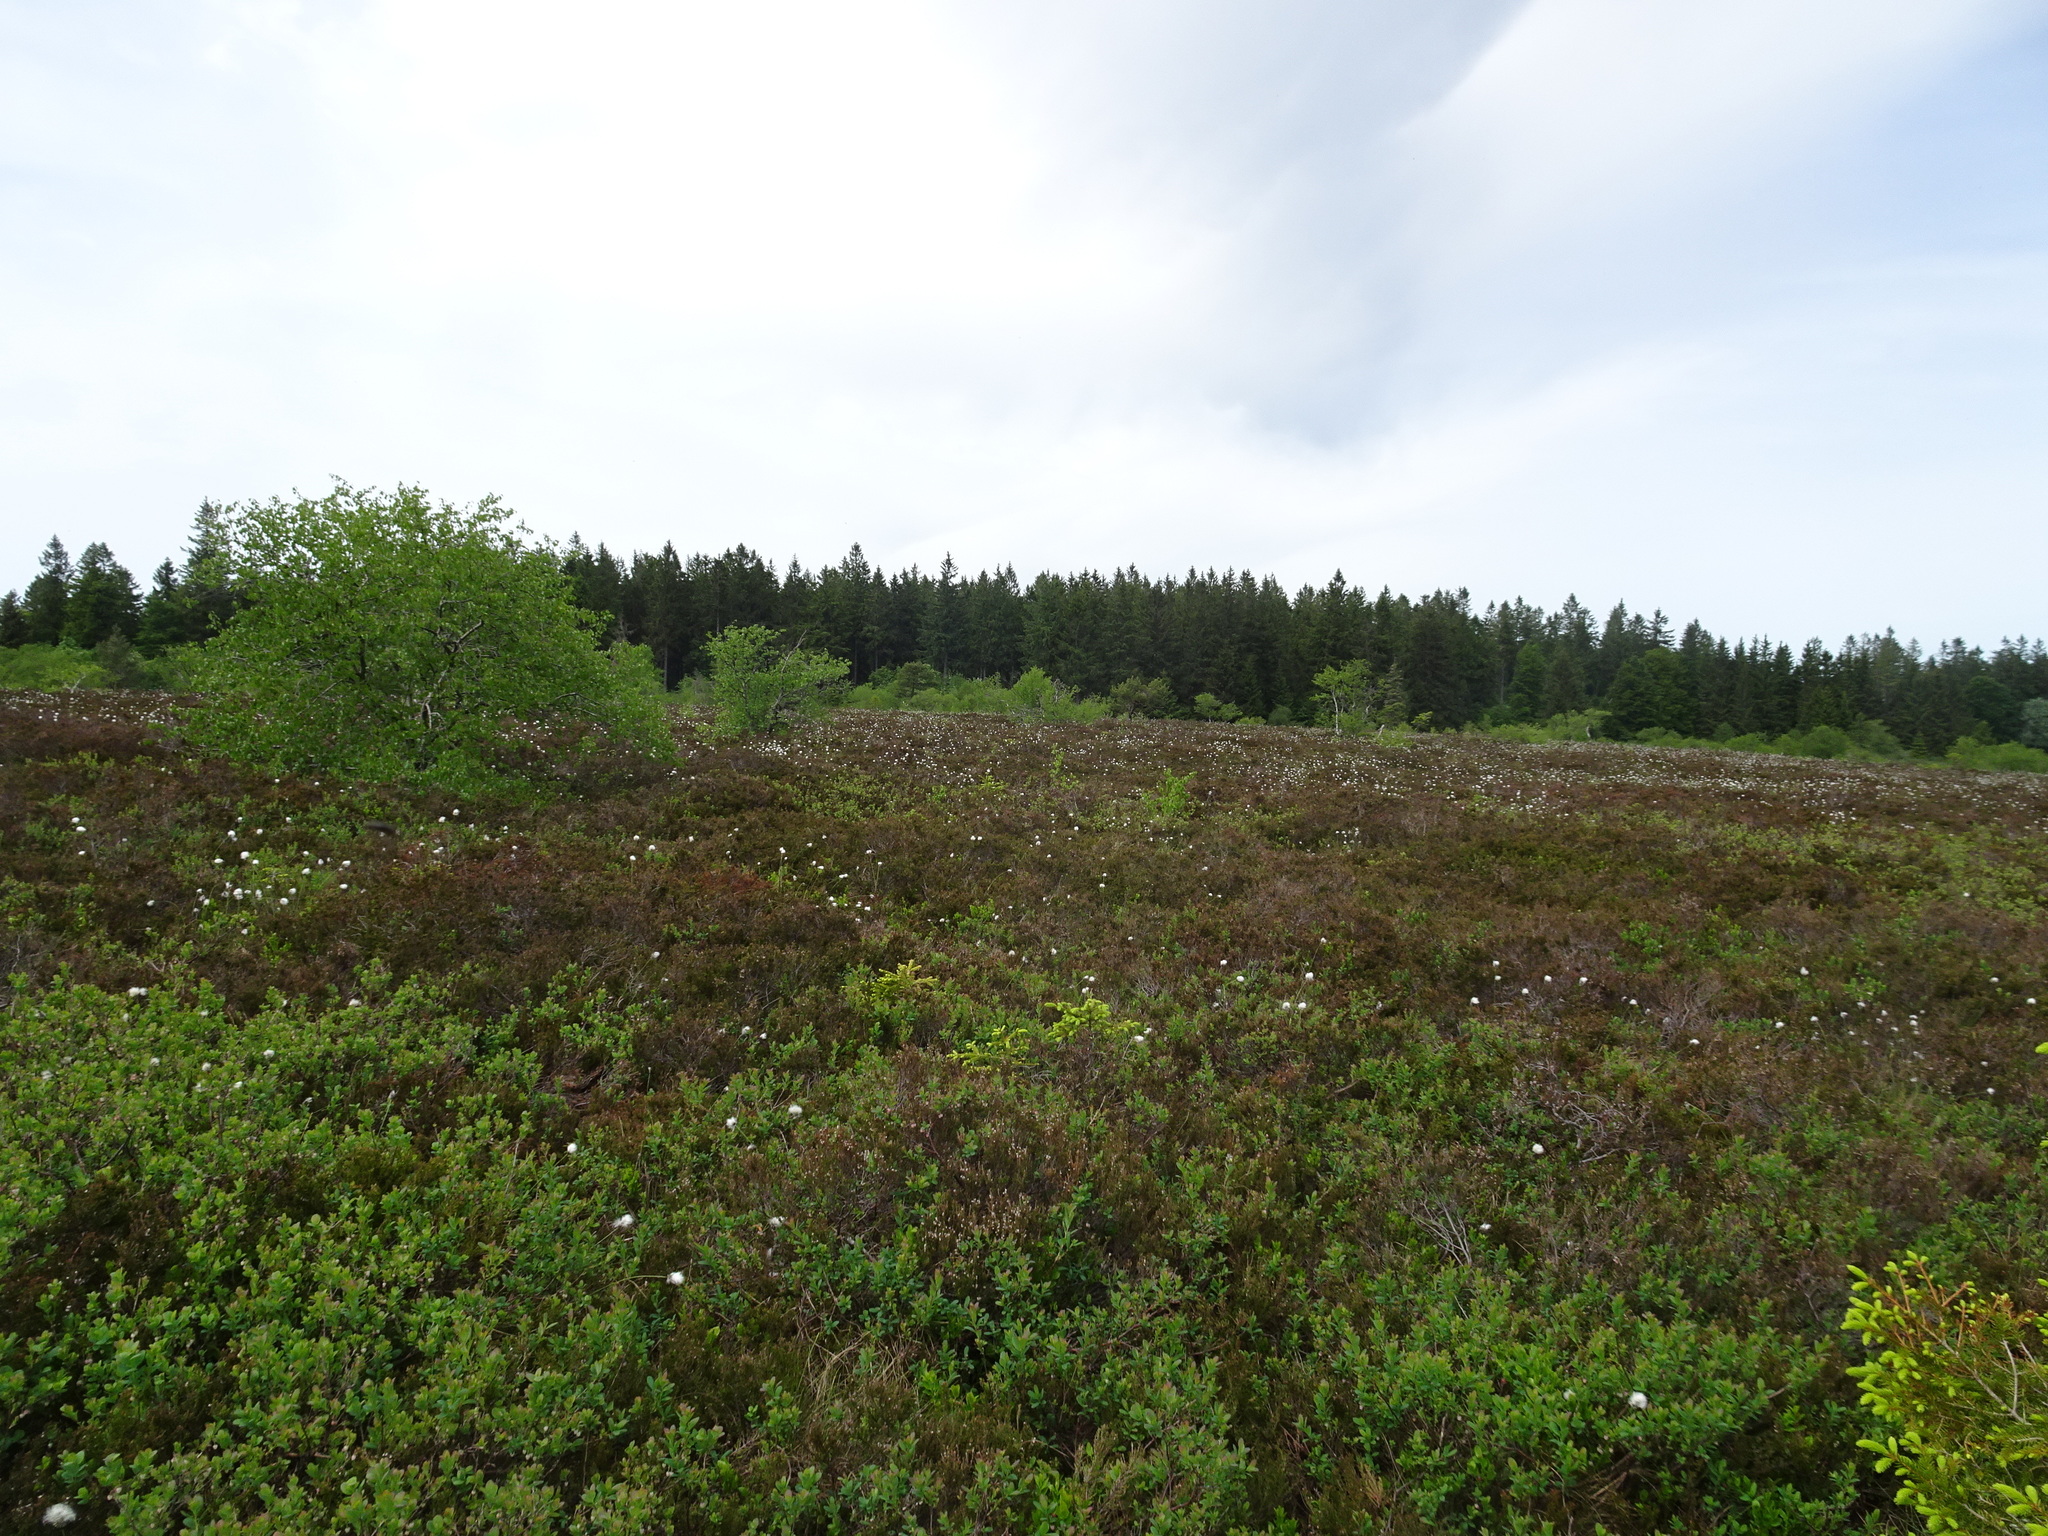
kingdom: Plantae
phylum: Tracheophyta
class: Magnoliopsida
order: Ericales
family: Ericaceae
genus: Vaccinium
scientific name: Vaccinium uliginosum
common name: Bog bilberry
